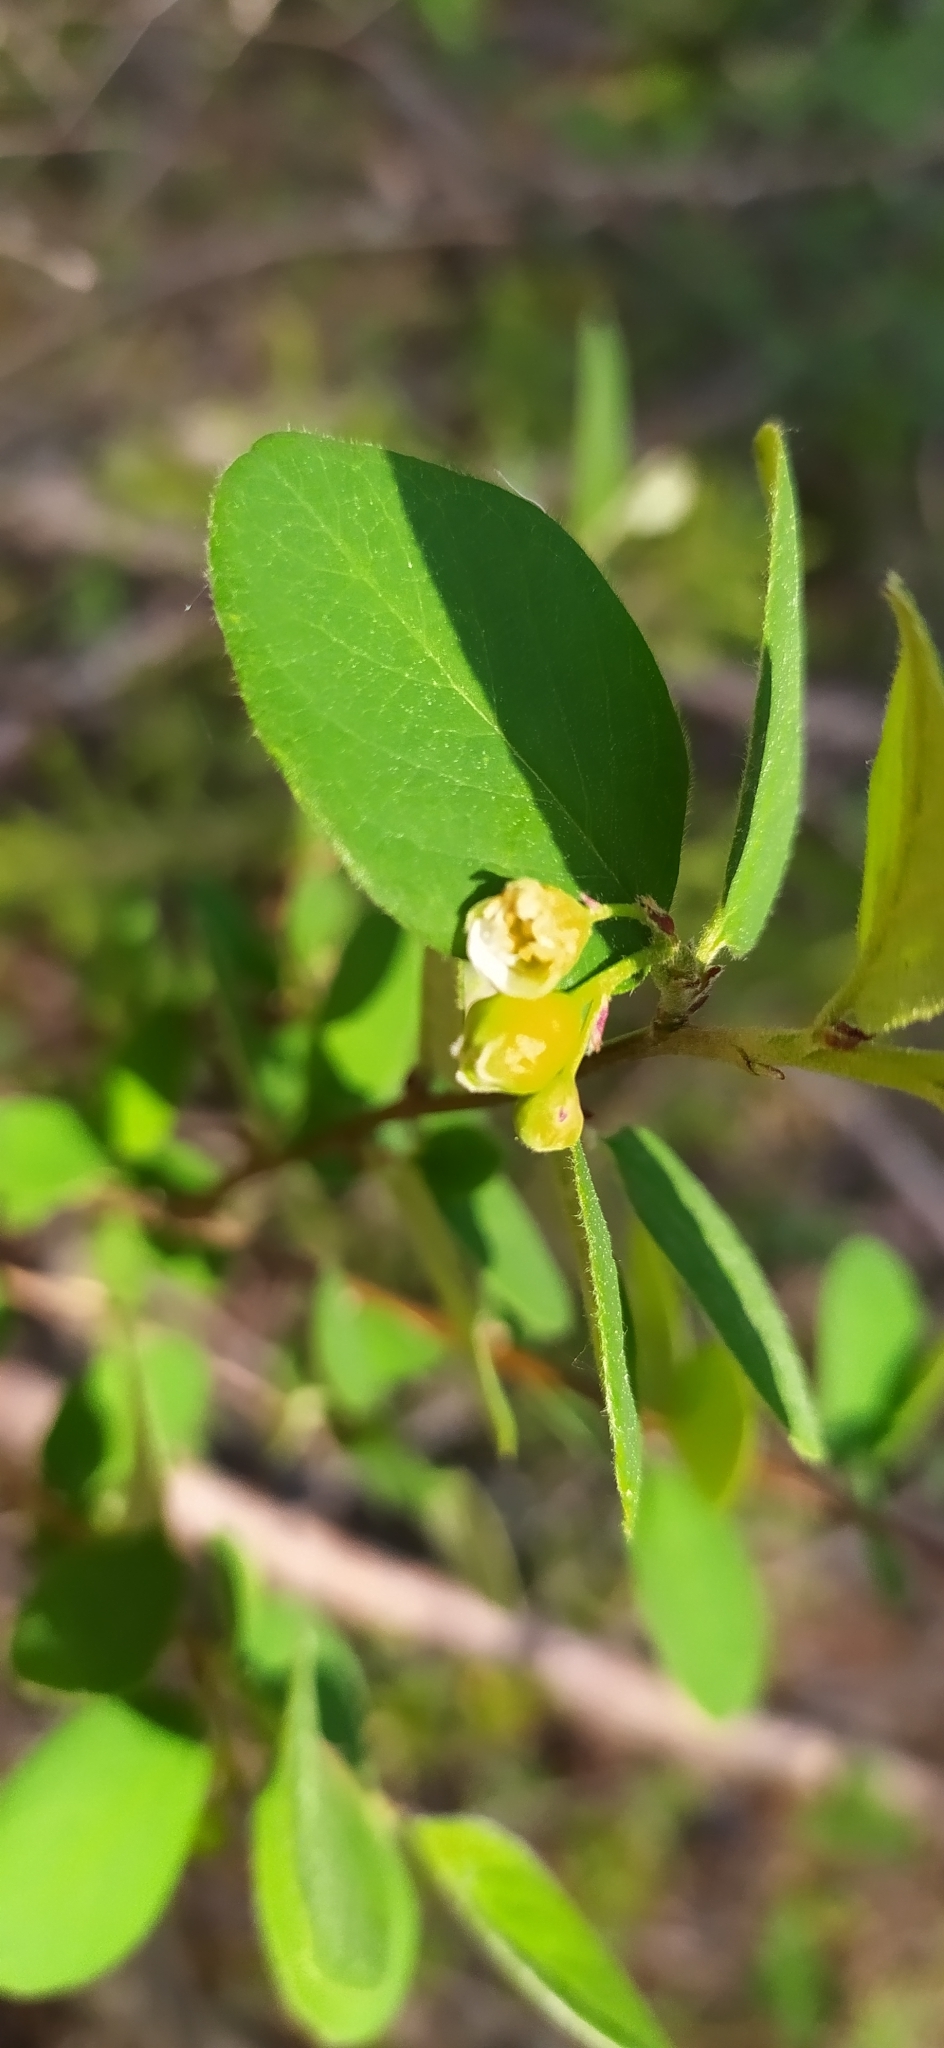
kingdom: Plantae
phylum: Tracheophyta
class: Magnoliopsida
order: Rosales
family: Rosaceae
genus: Cotoneaster
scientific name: Cotoneaster melanocarpus
